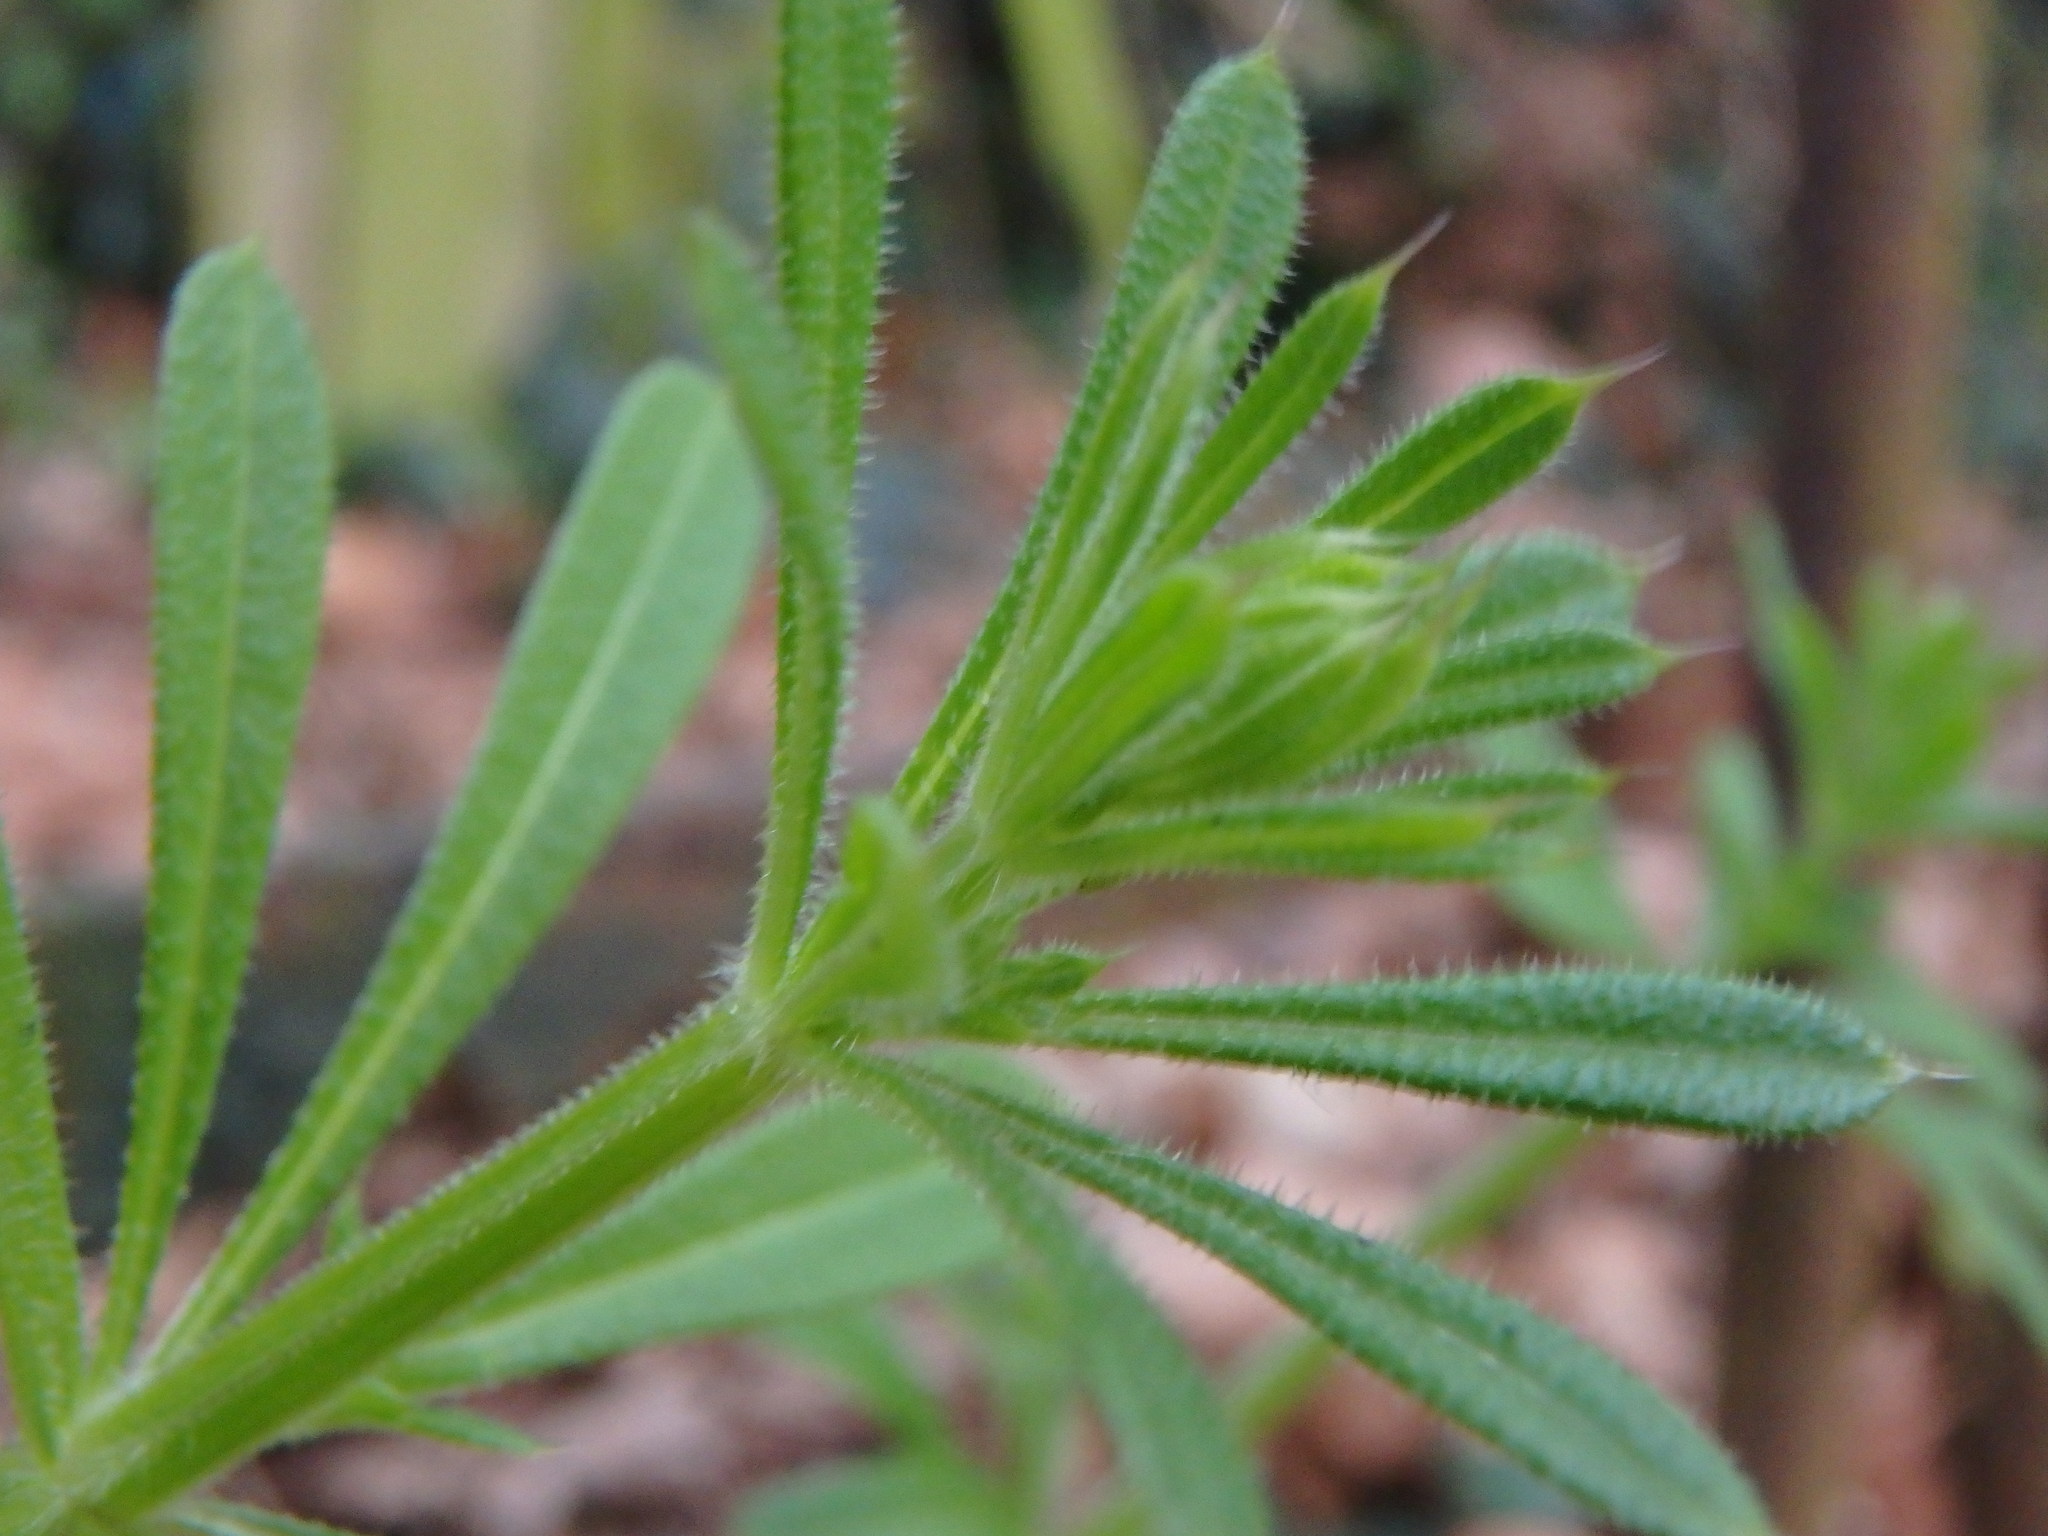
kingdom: Plantae
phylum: Tracheophyta
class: Magnoliopsida
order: Gentianales
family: Rubiaceae
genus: Galium
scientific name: Galium aparine
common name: Cleavers
